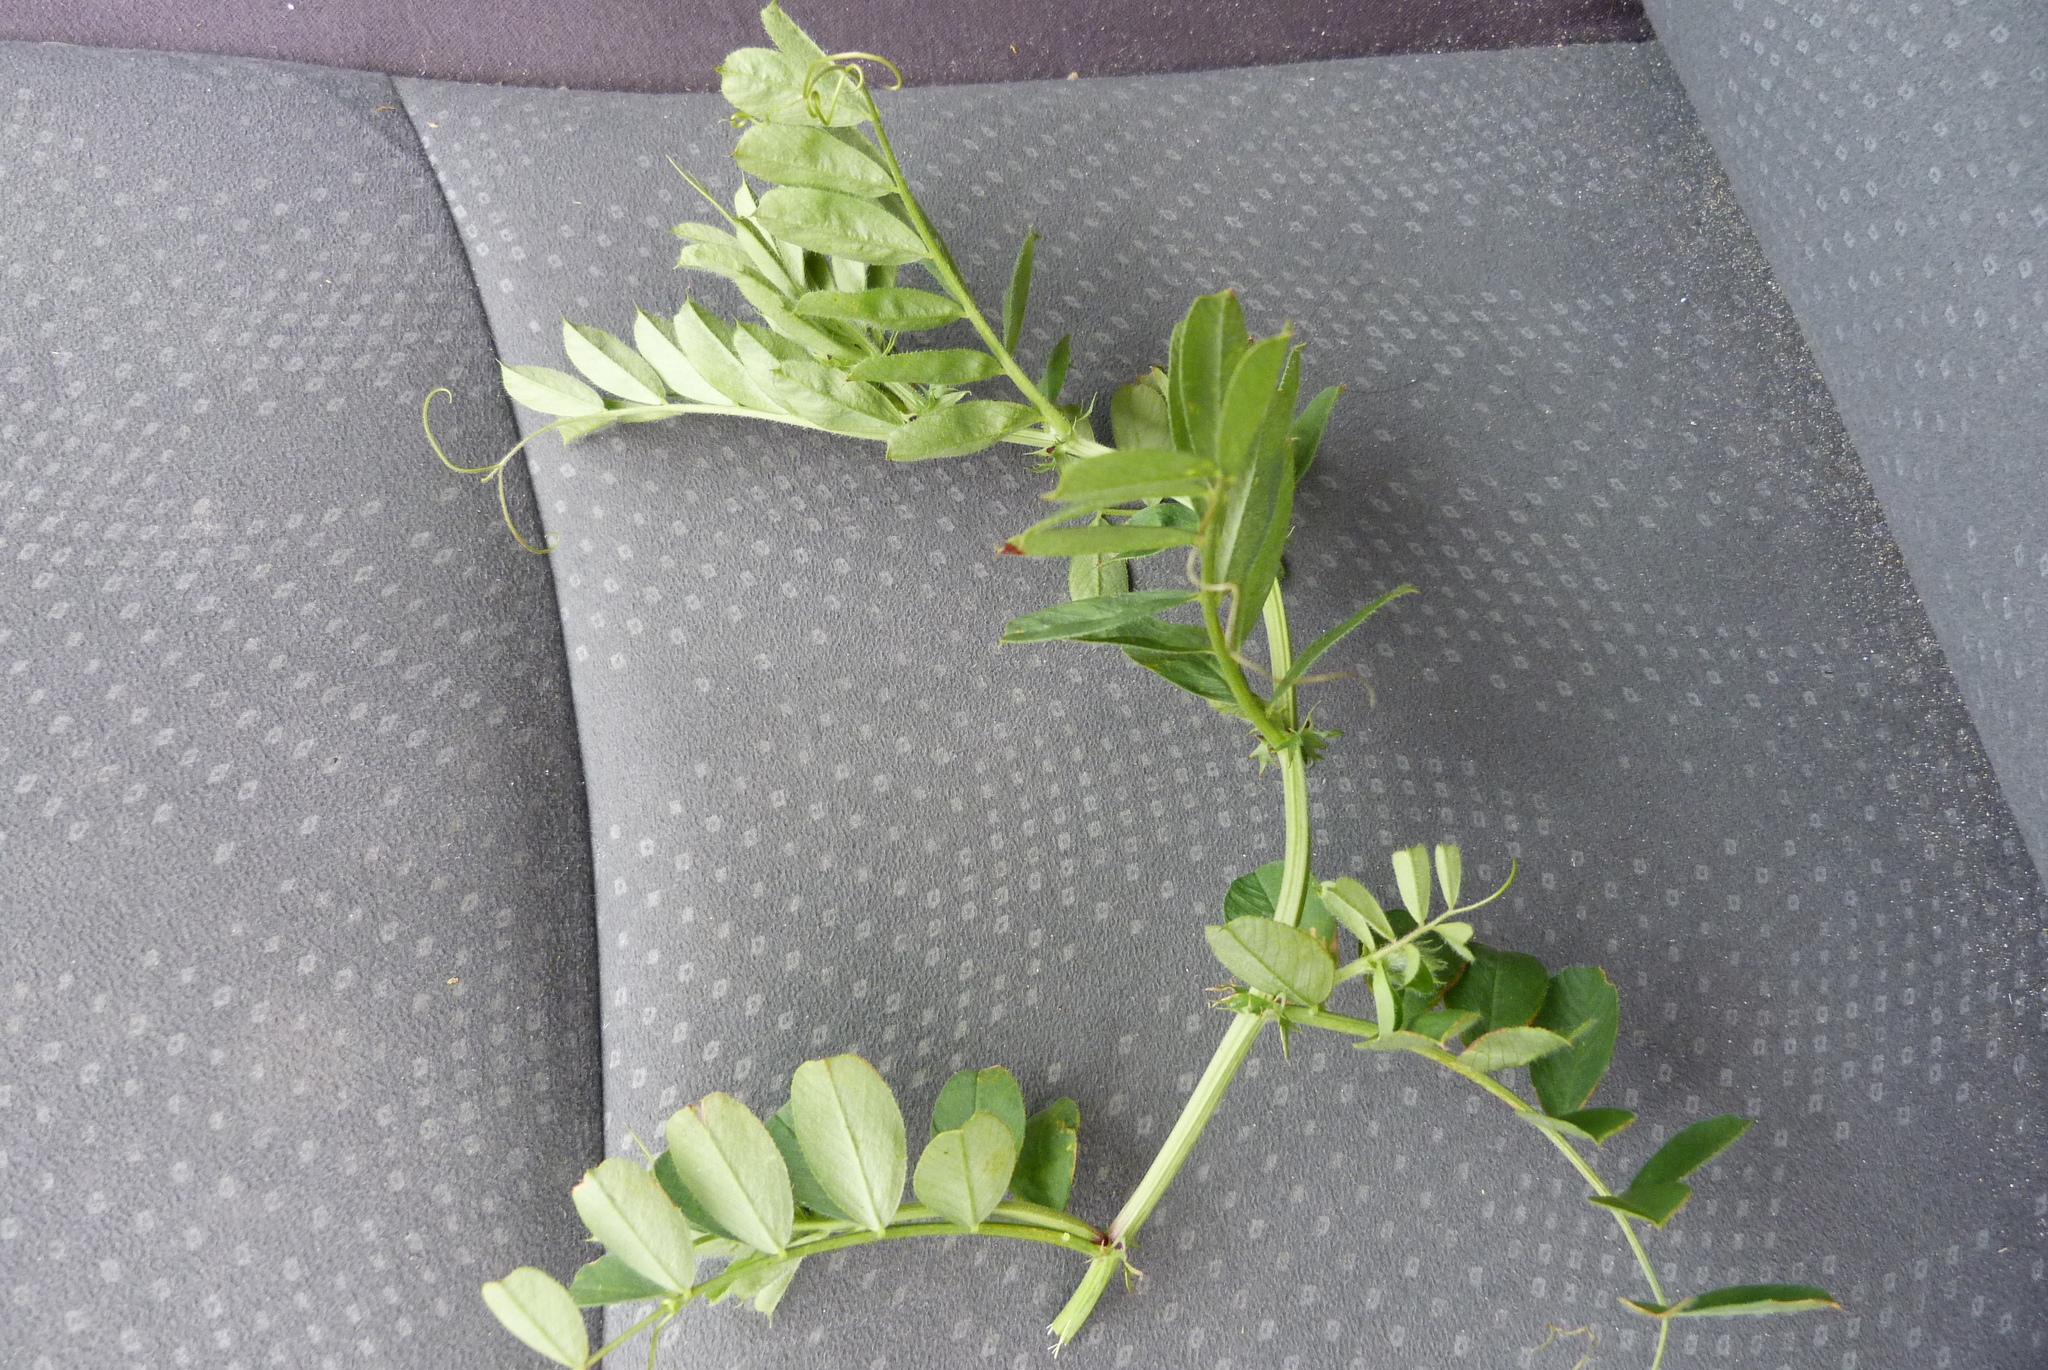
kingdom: Plantae
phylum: Tracheophyta
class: Magnoliopsida
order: Fabales
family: Fabaceae
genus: Vicia
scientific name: Vicia sativa
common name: Garden vetch
